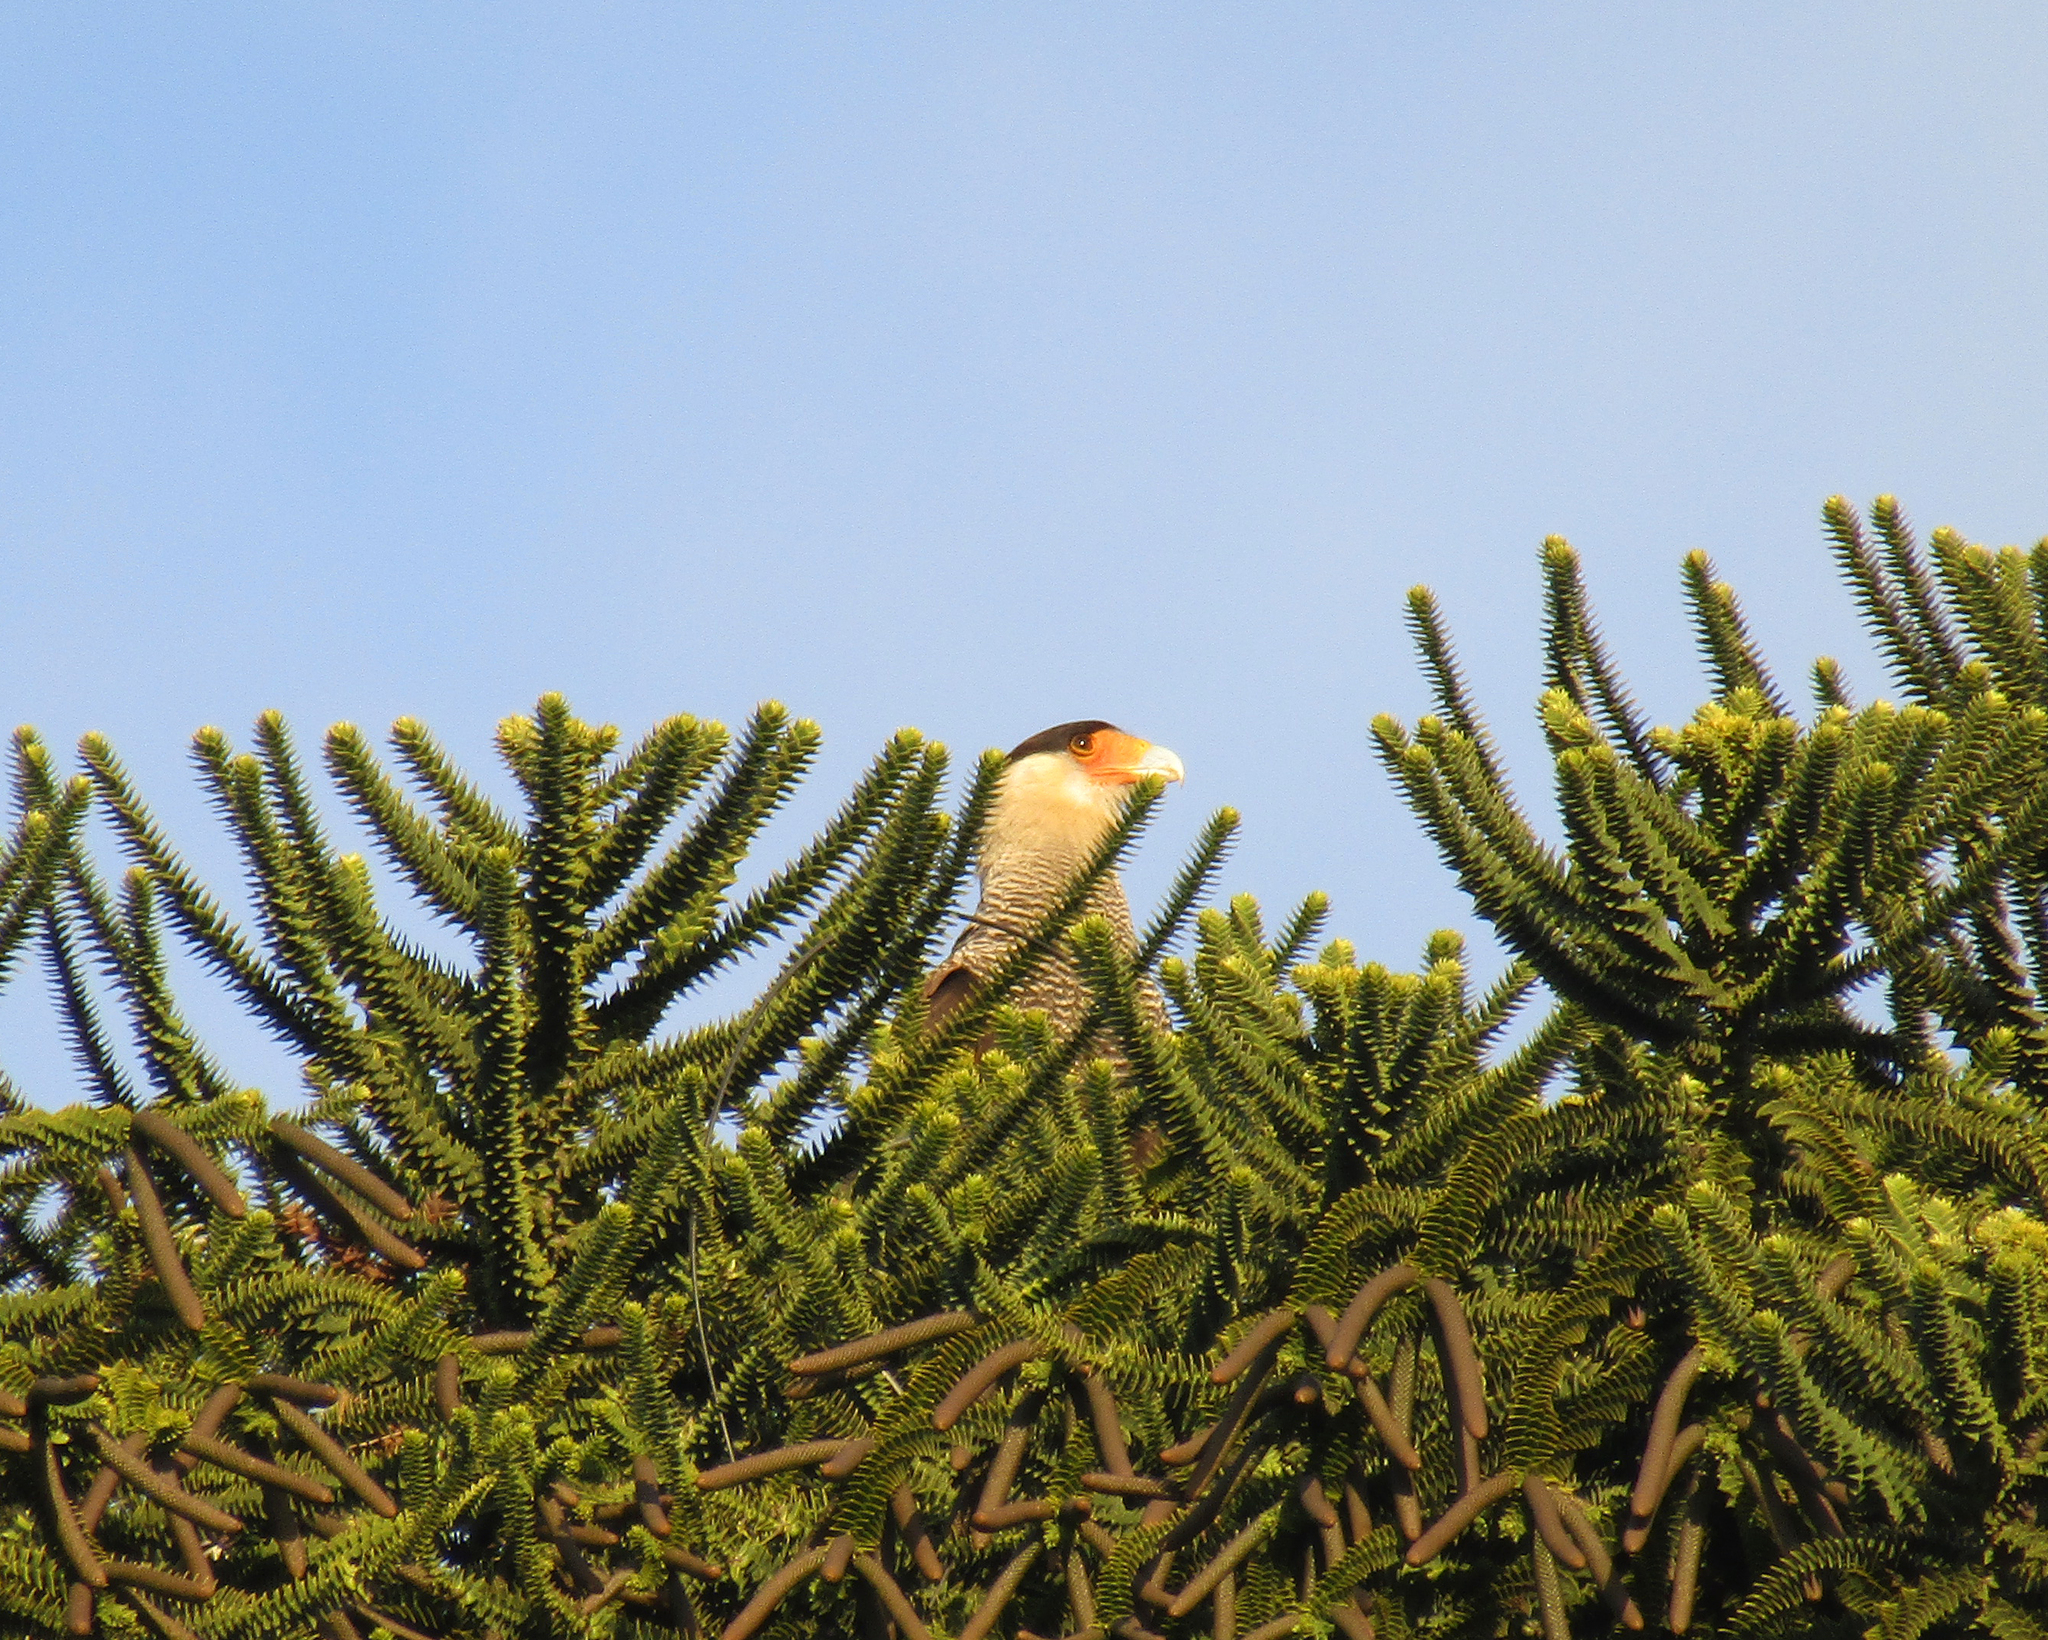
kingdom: Animalia
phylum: Chordata
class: Aves
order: Falconiformes
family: Falconidae
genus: Caracara
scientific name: Caracara plancus
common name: Southern caracara
